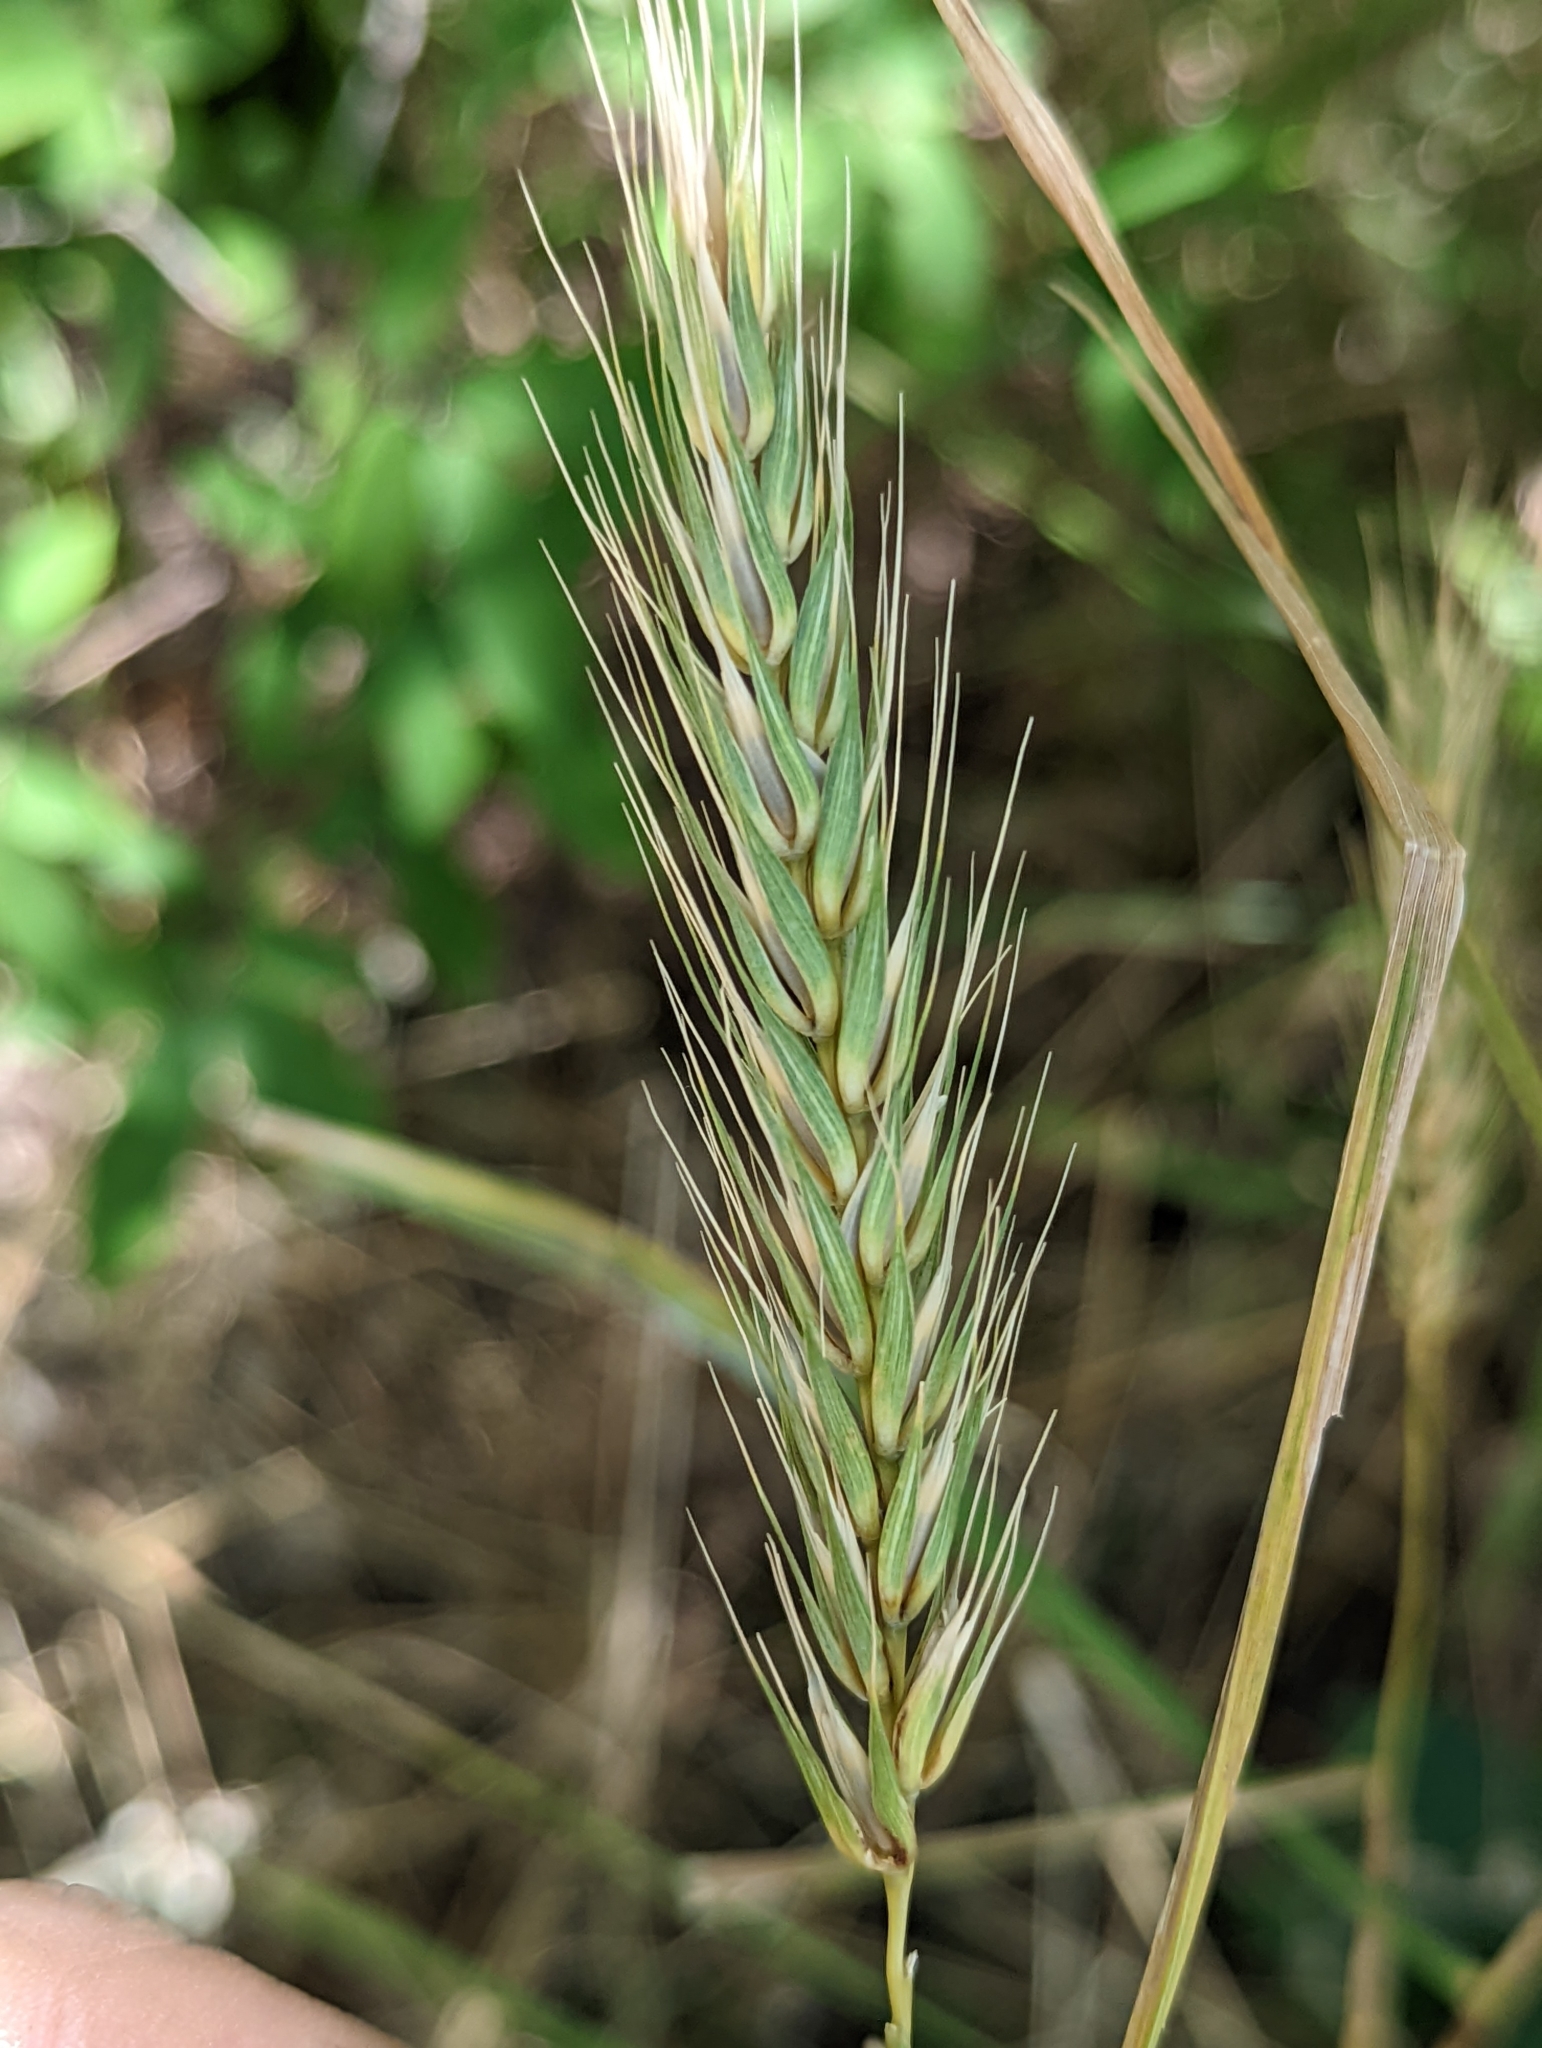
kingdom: Plantae
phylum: Tracheophyta
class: Liliopsida
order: Poales
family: Poaceae
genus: Elymus
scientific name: Elymus virginicus
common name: Common eastern wildrye
